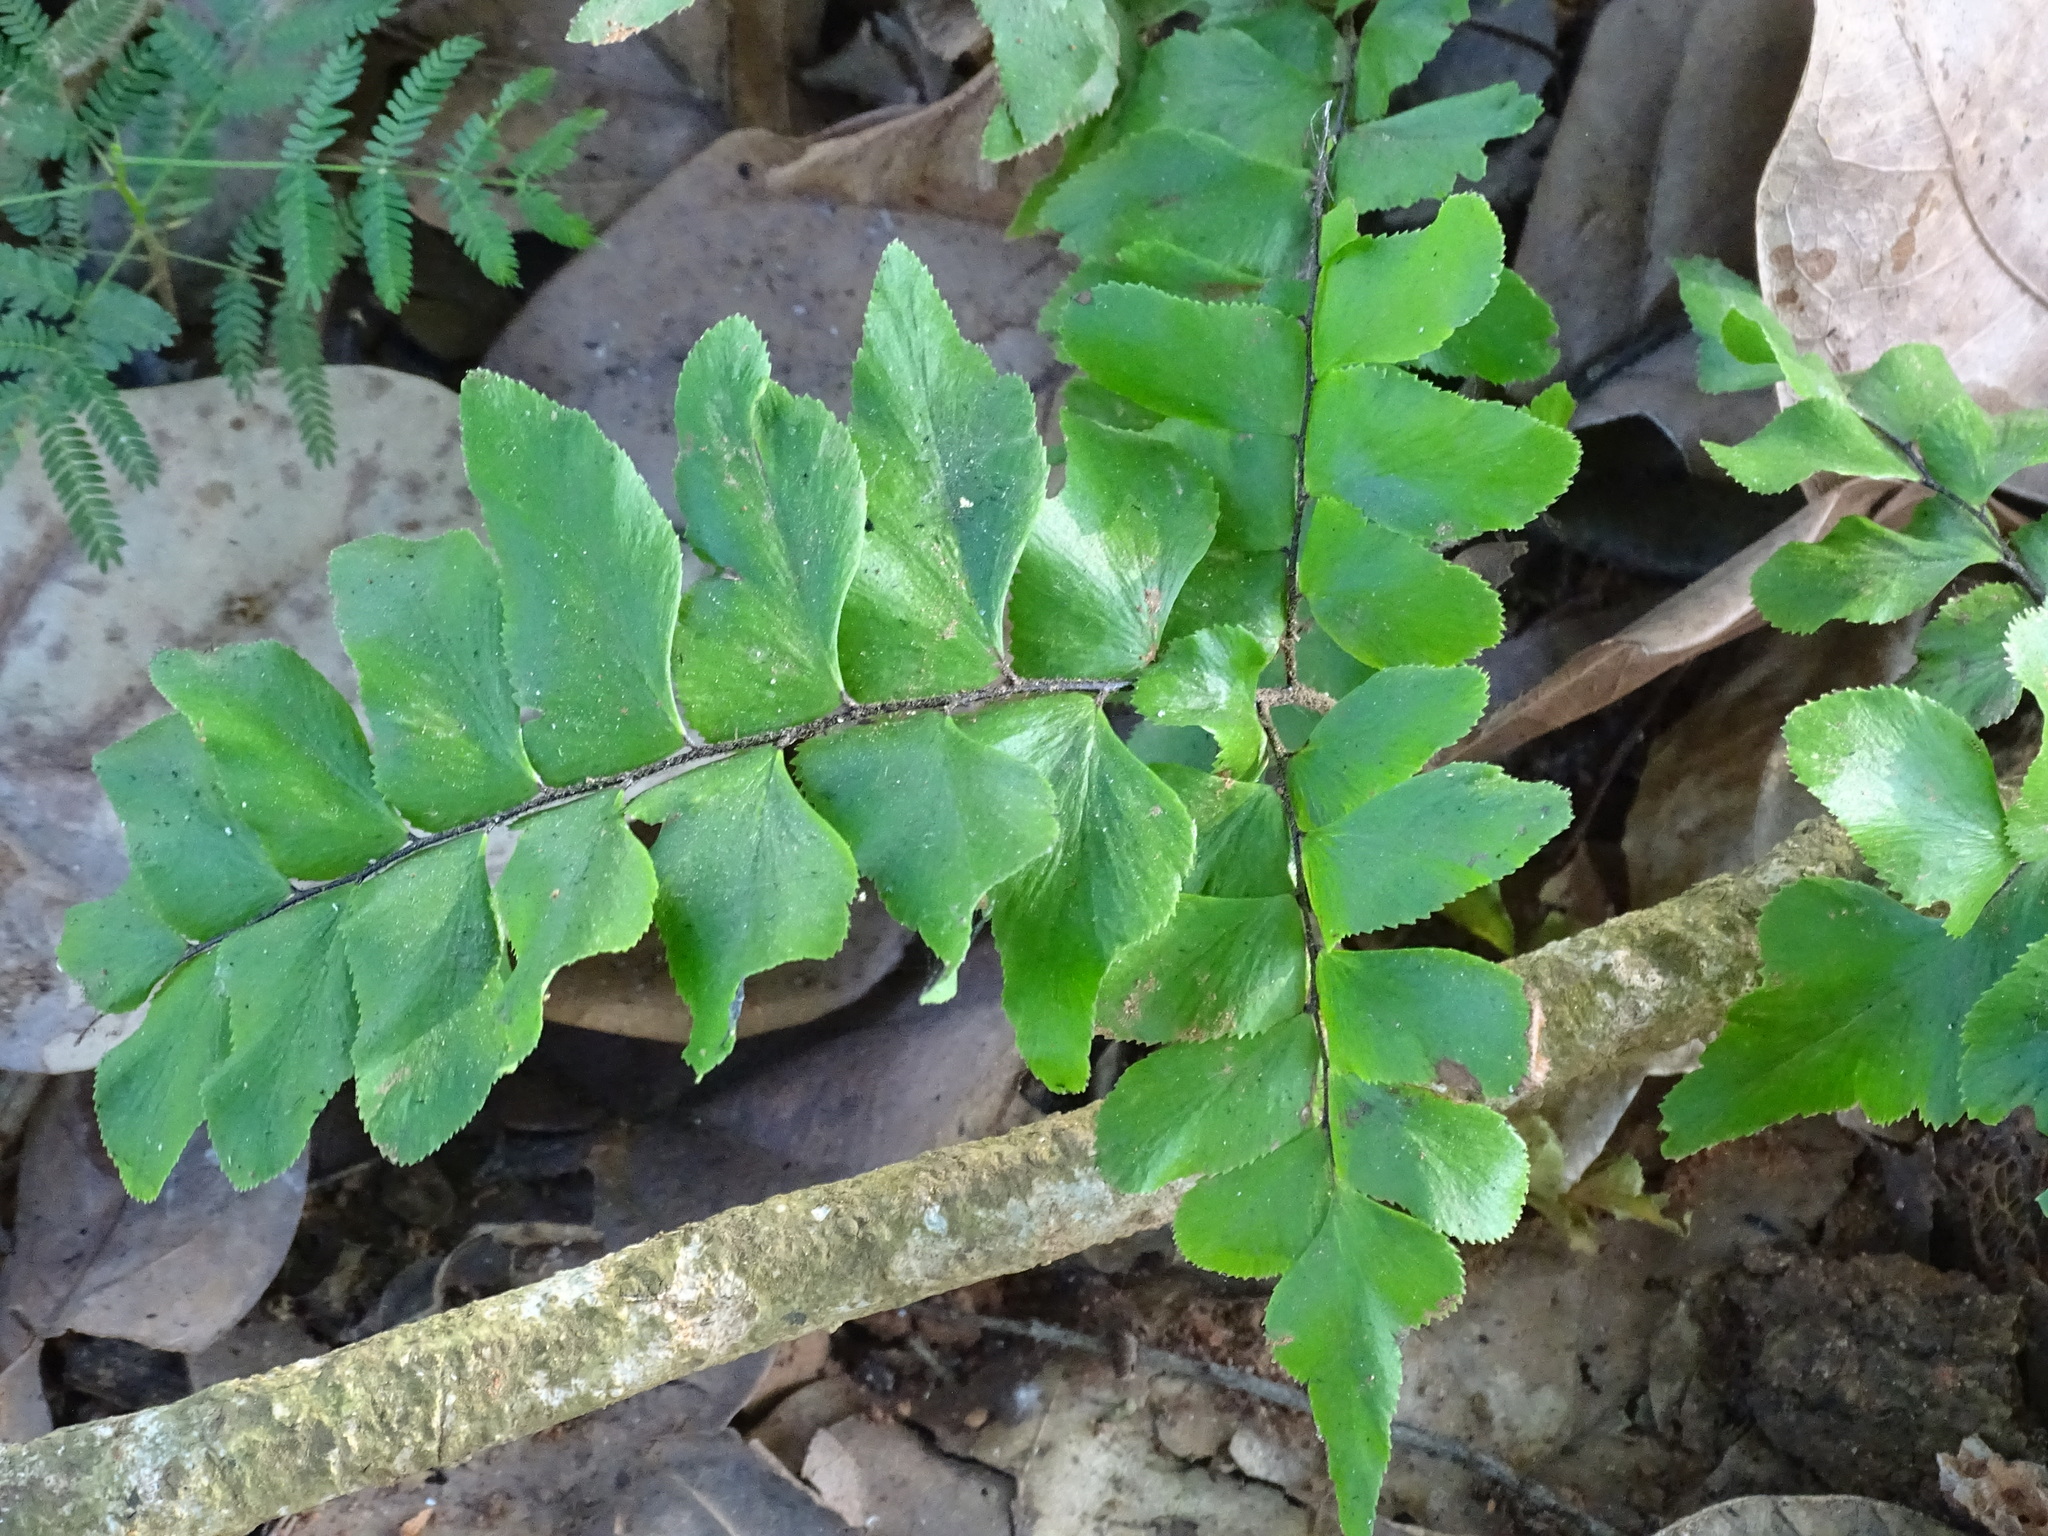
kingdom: Plantae
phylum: Tracheophyta
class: Polypodiopsida
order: Polypodiales
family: Pteridaceae
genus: Adiantum
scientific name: Adiantum mcvaughii
